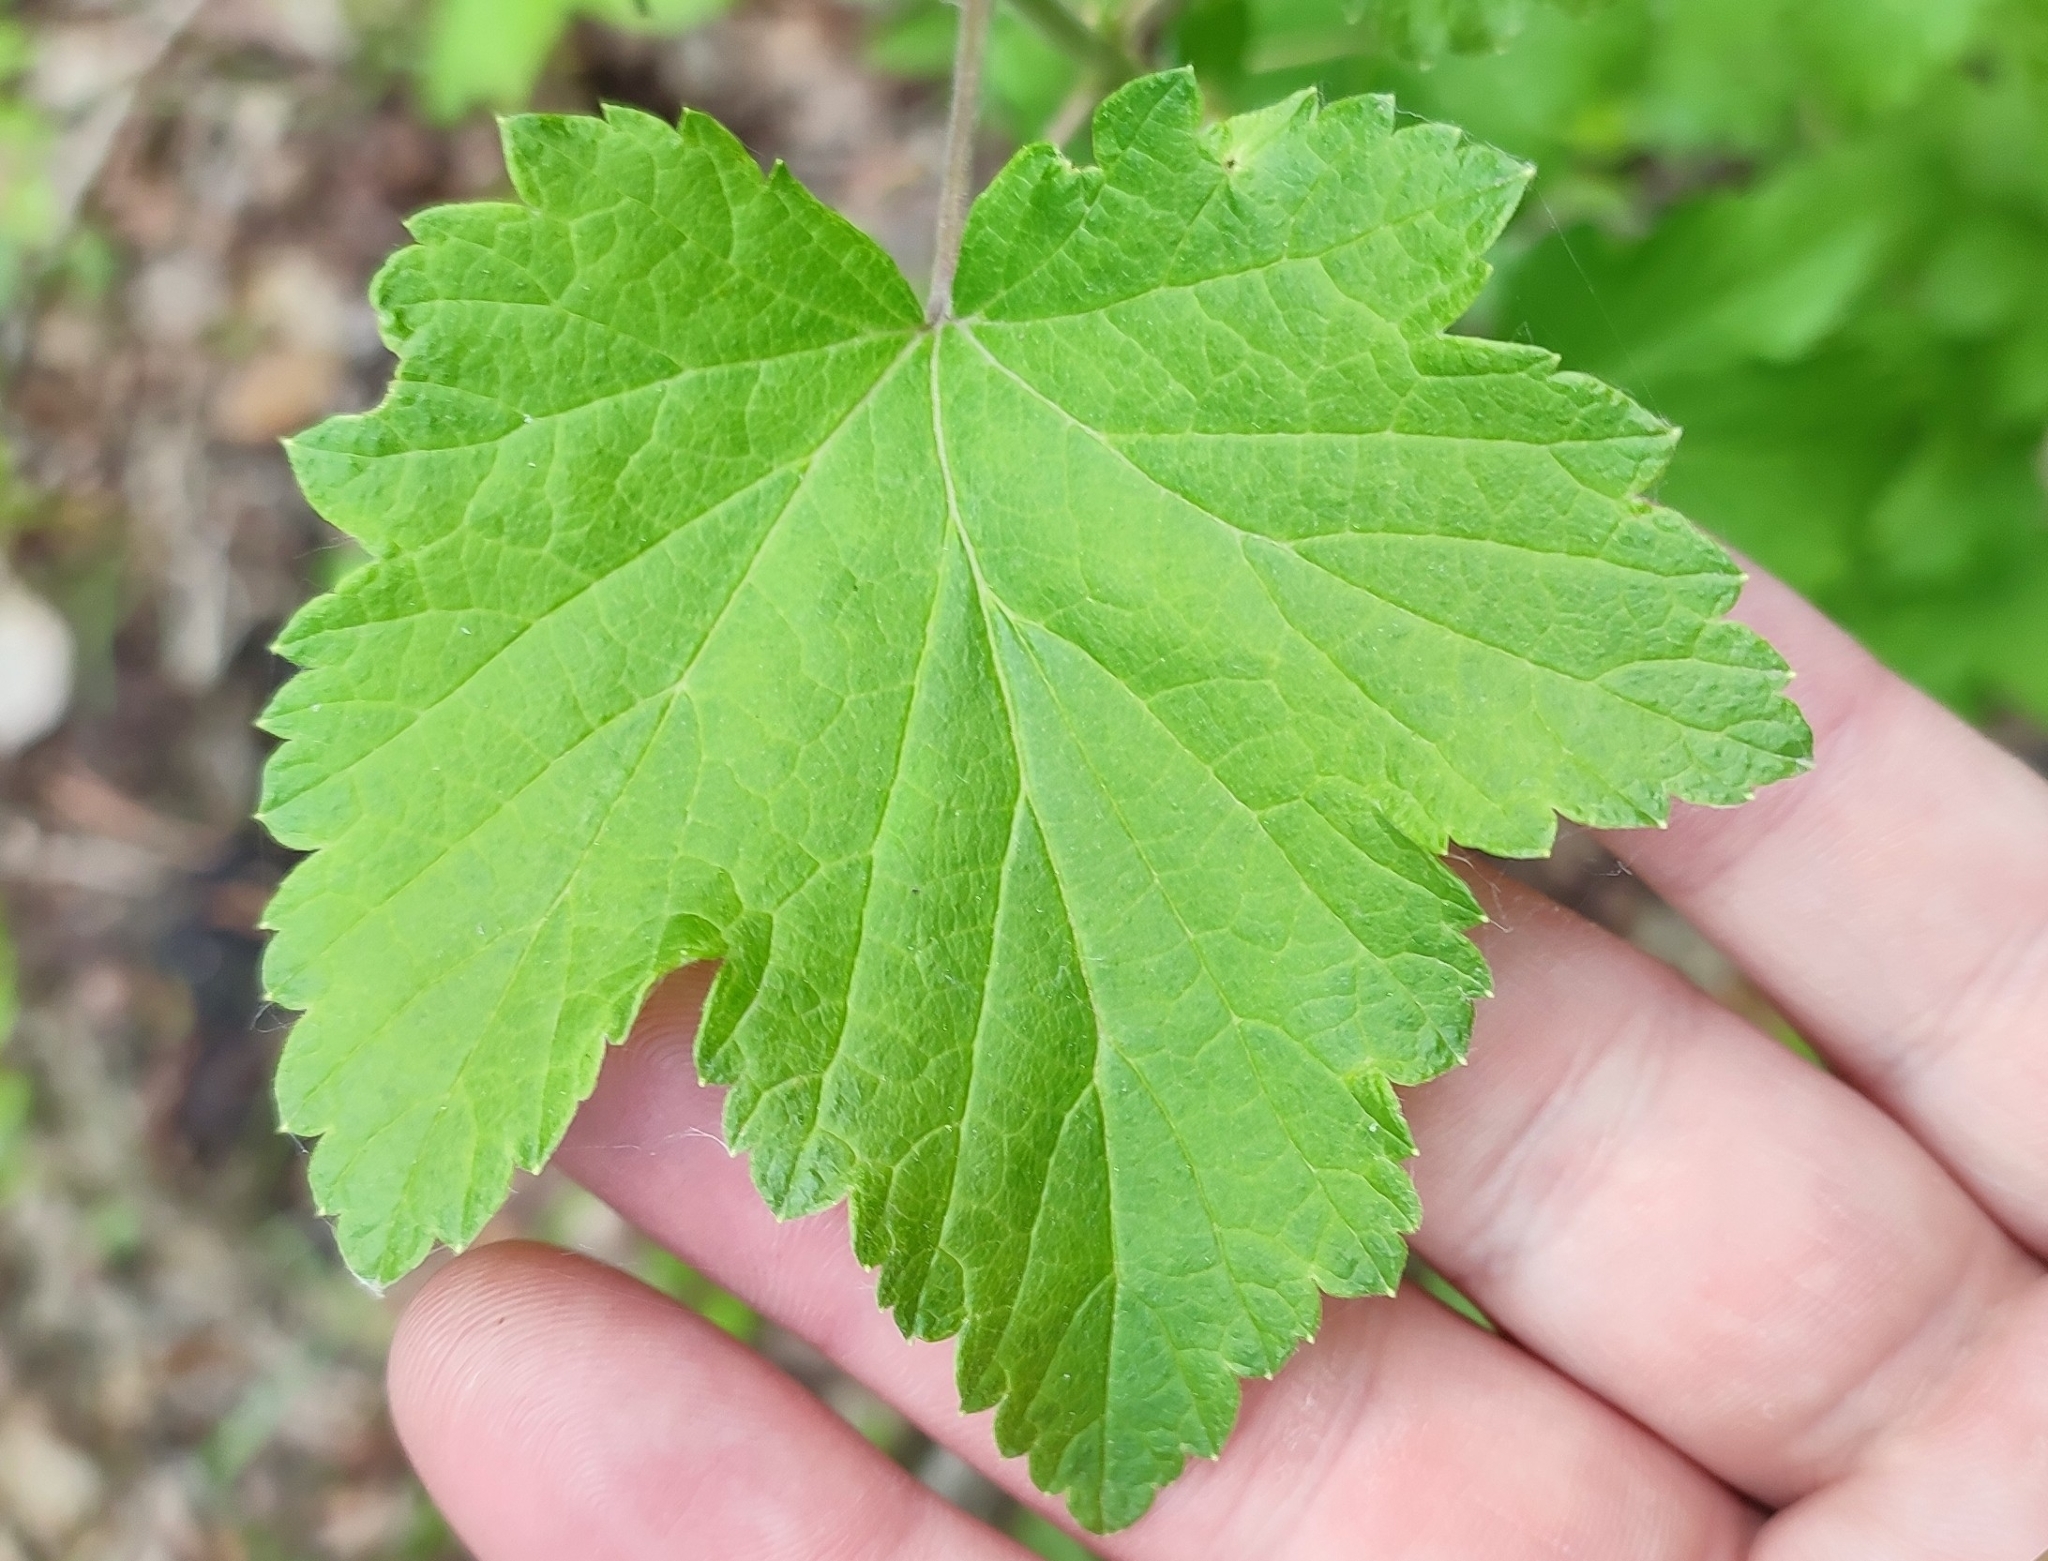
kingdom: Plantae
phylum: Tracheophyta
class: Magnoliopsida
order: Saxifragales
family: Grossulariaceae
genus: Ribes
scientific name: Ribes nigrum
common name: Black currant
